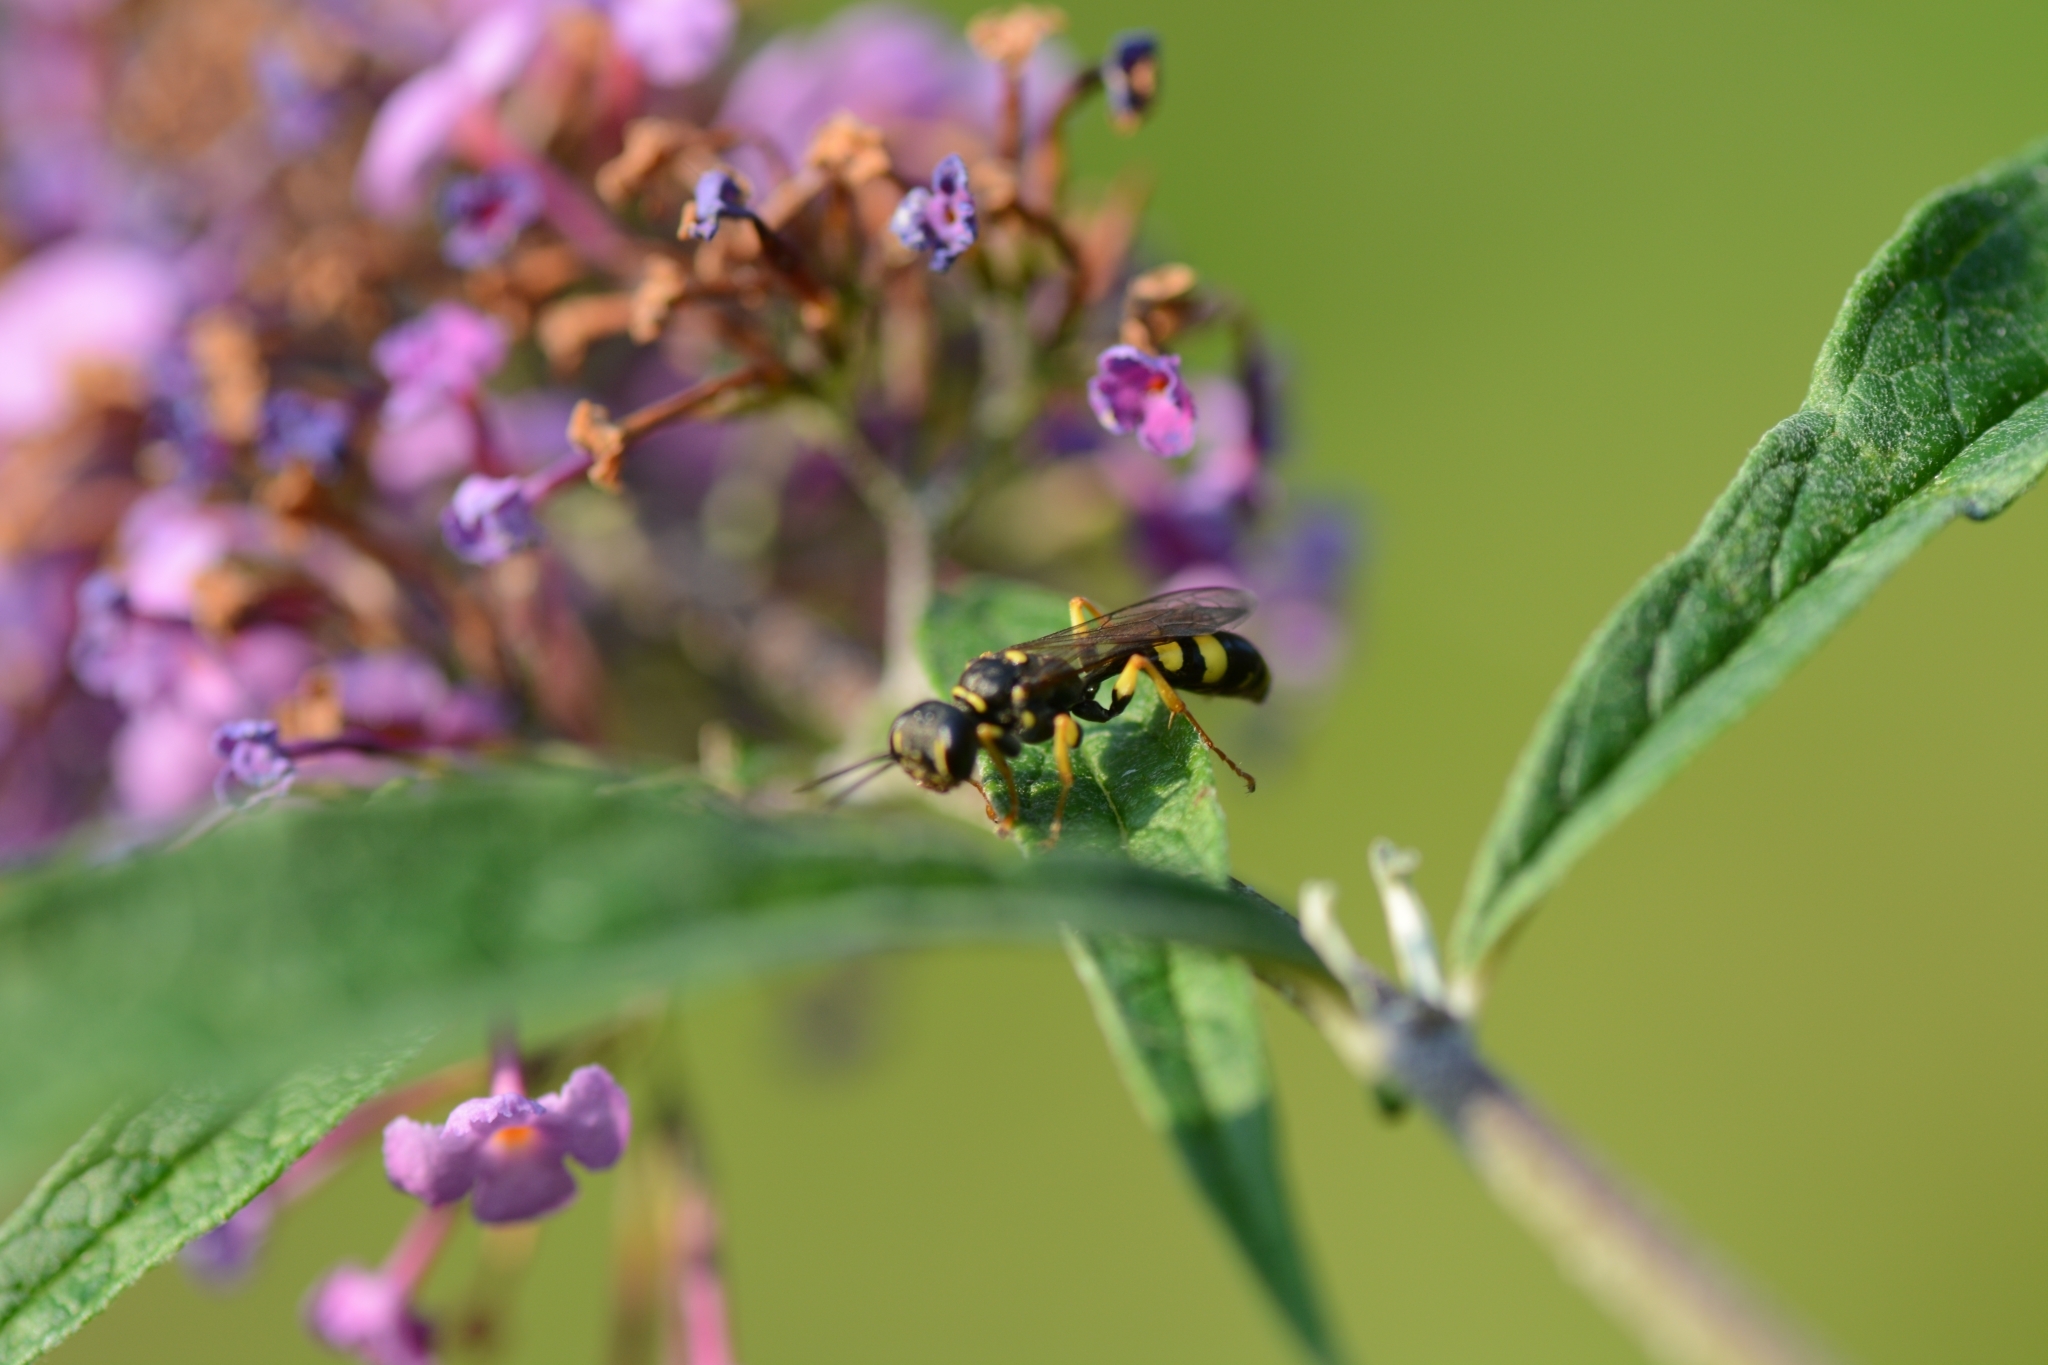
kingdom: Animalia
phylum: Arthropoda
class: Insecta
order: Hymenoptera
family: Crabronidae
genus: Mellinus
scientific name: Mellinus arvensis
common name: Field digger wasp
